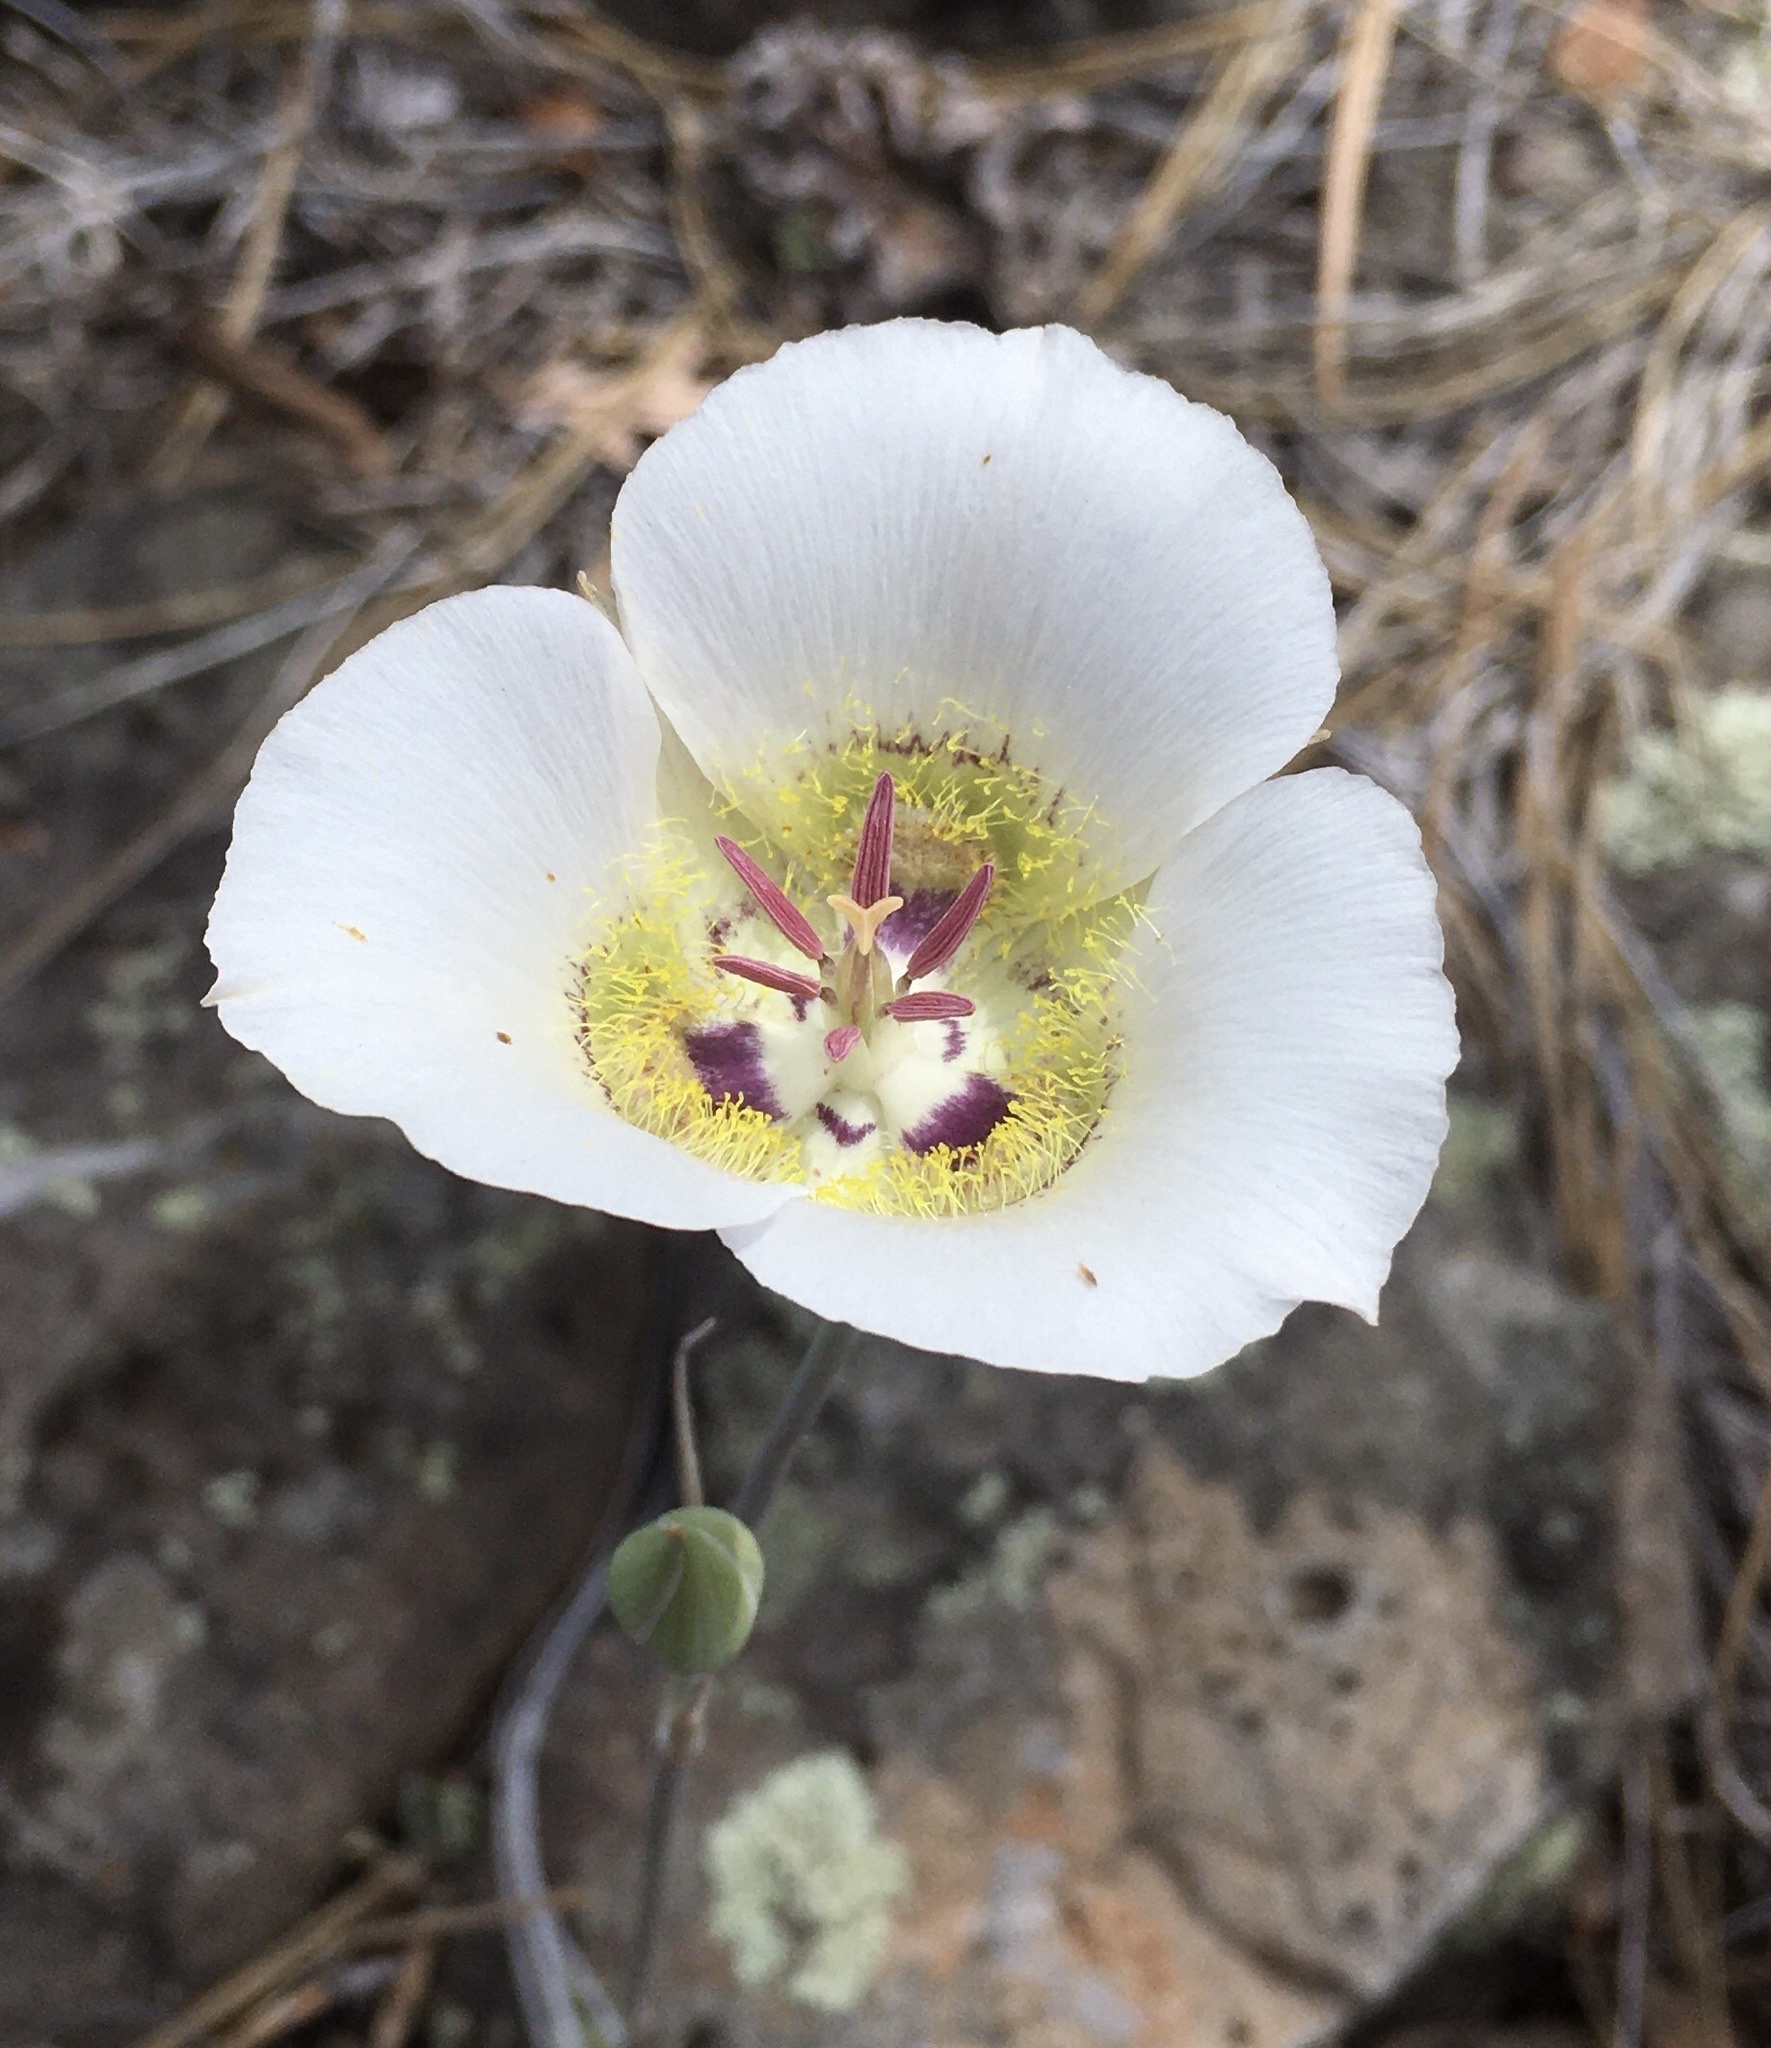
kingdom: Plantae
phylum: Tracheophyta
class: Liliopsida
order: Liliales
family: Liliaceae
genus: Calochortus
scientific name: Calochortus ambiguus
